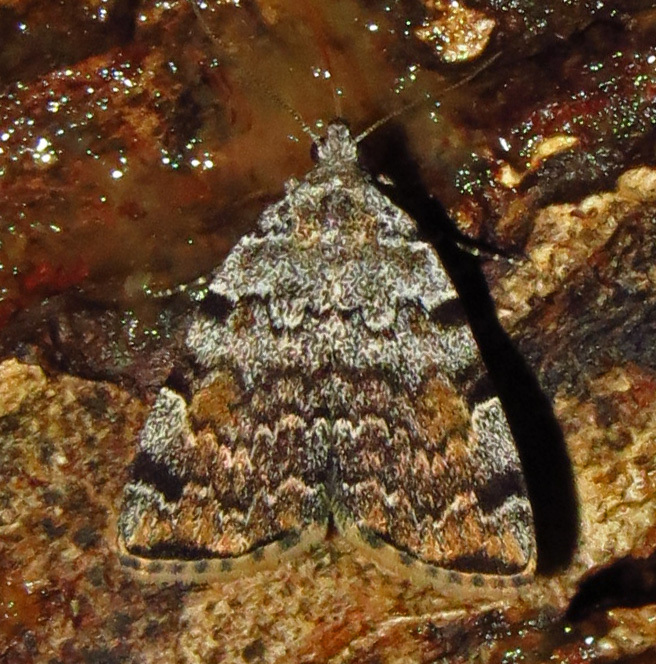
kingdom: Animalia
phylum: Arthropoda
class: Insecta
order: Lepidoptera
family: Erebidae
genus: Idia
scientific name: Idia americalis
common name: American idia moth
